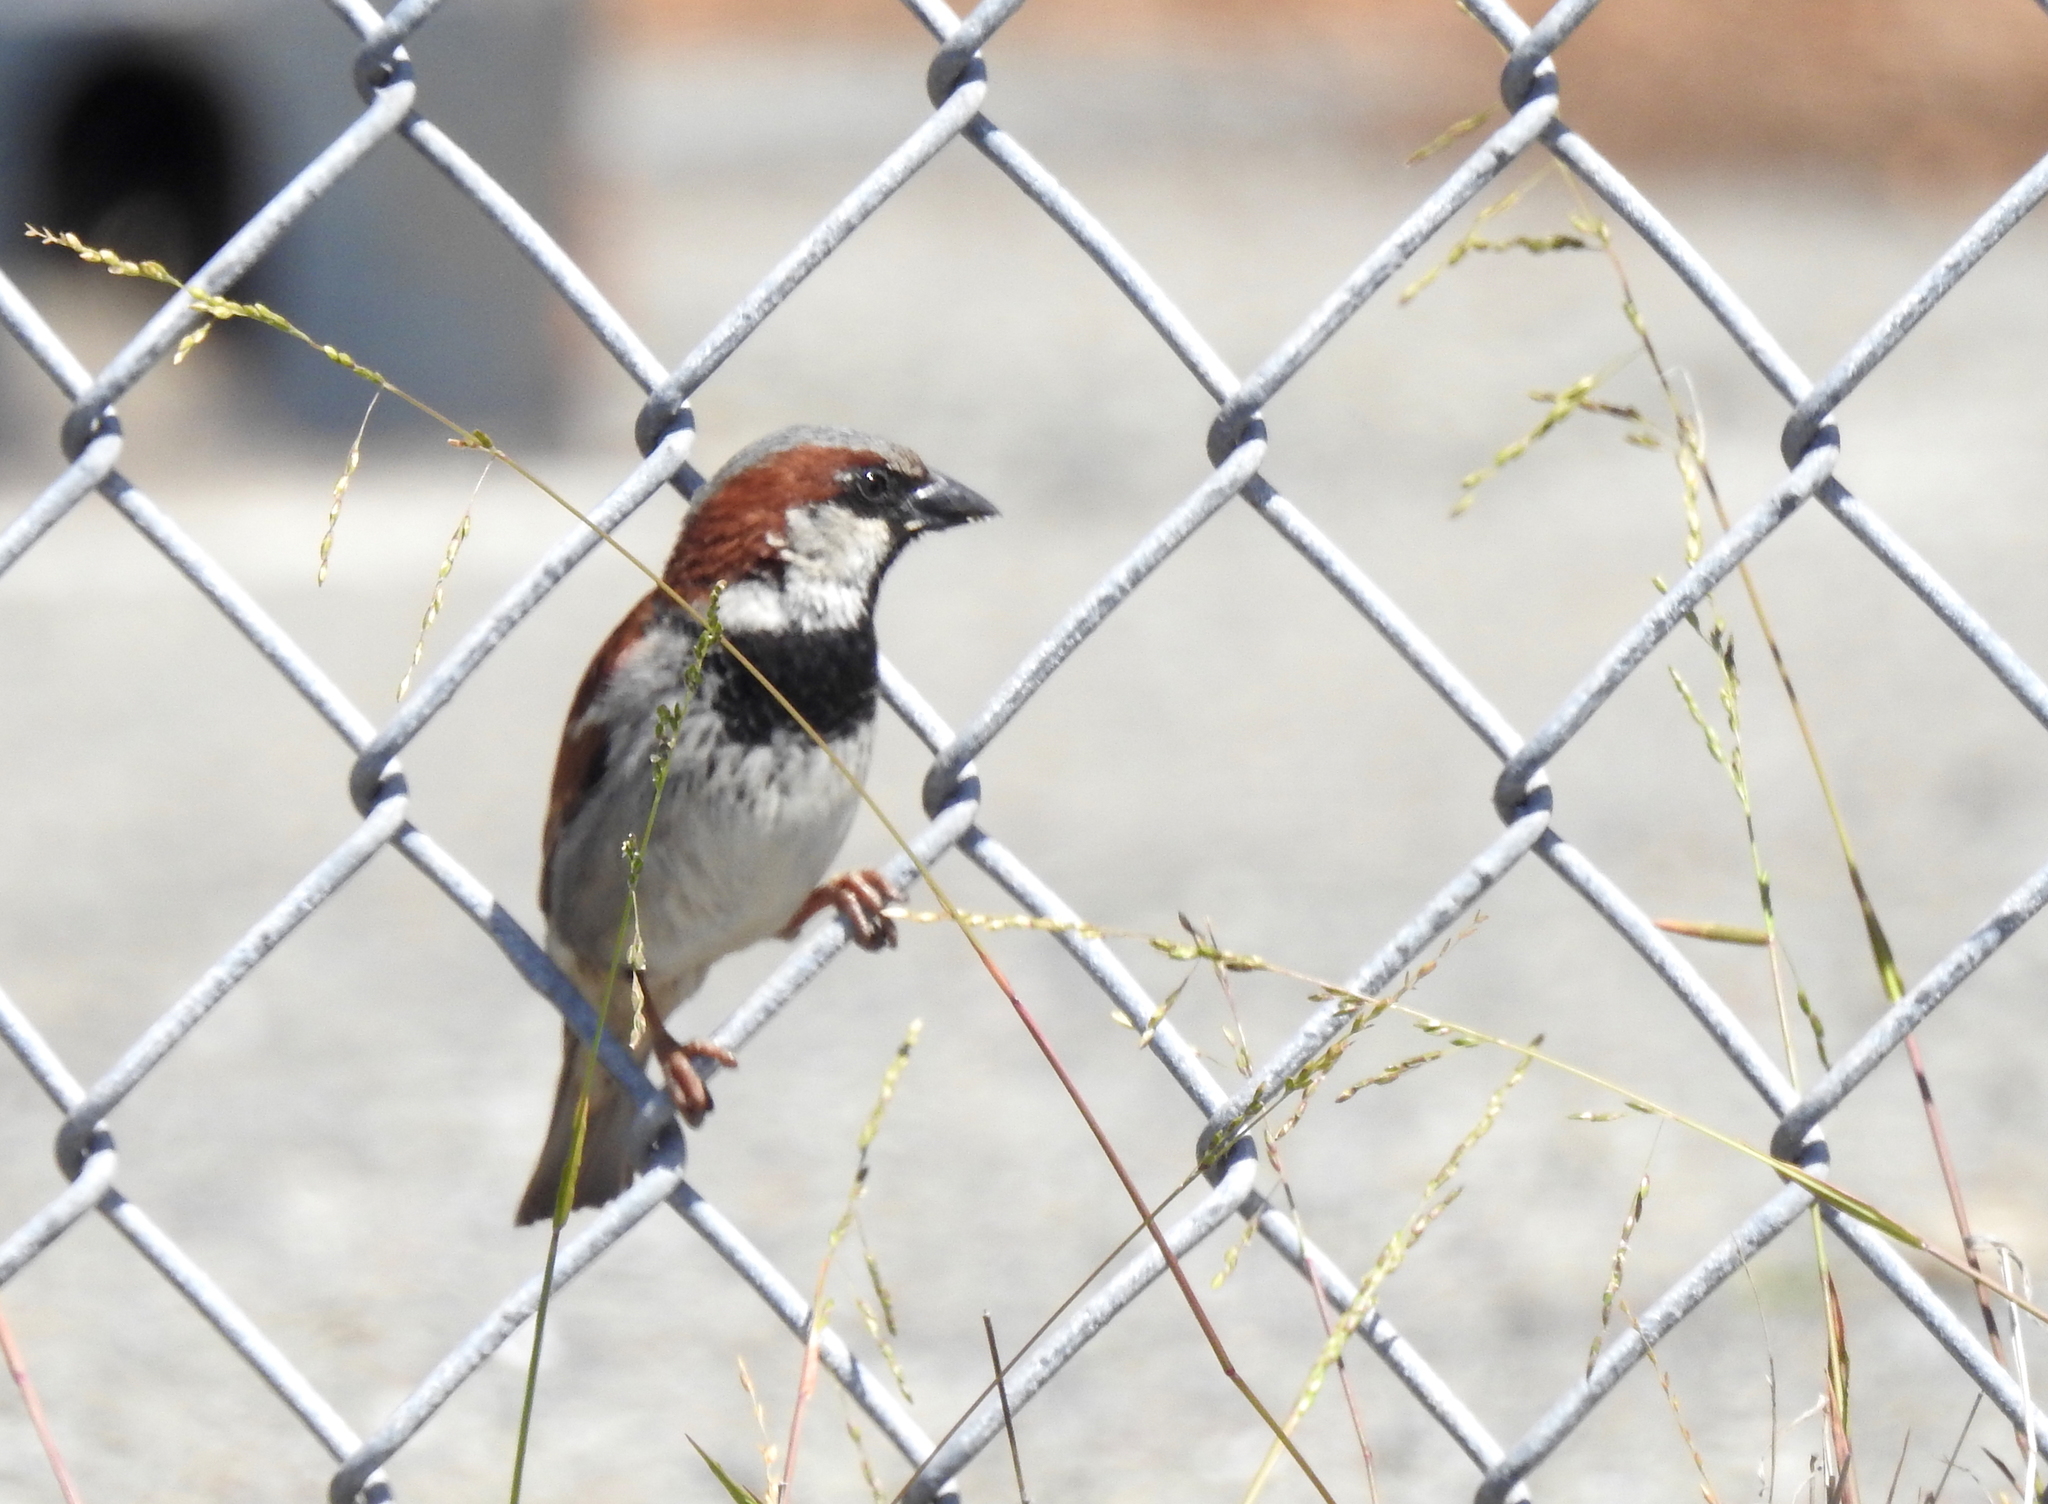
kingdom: Animalia
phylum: Chordata
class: Aves
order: Passeriformes
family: Passeridae
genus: Passer
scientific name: Passer domesticus
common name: House sparrow
